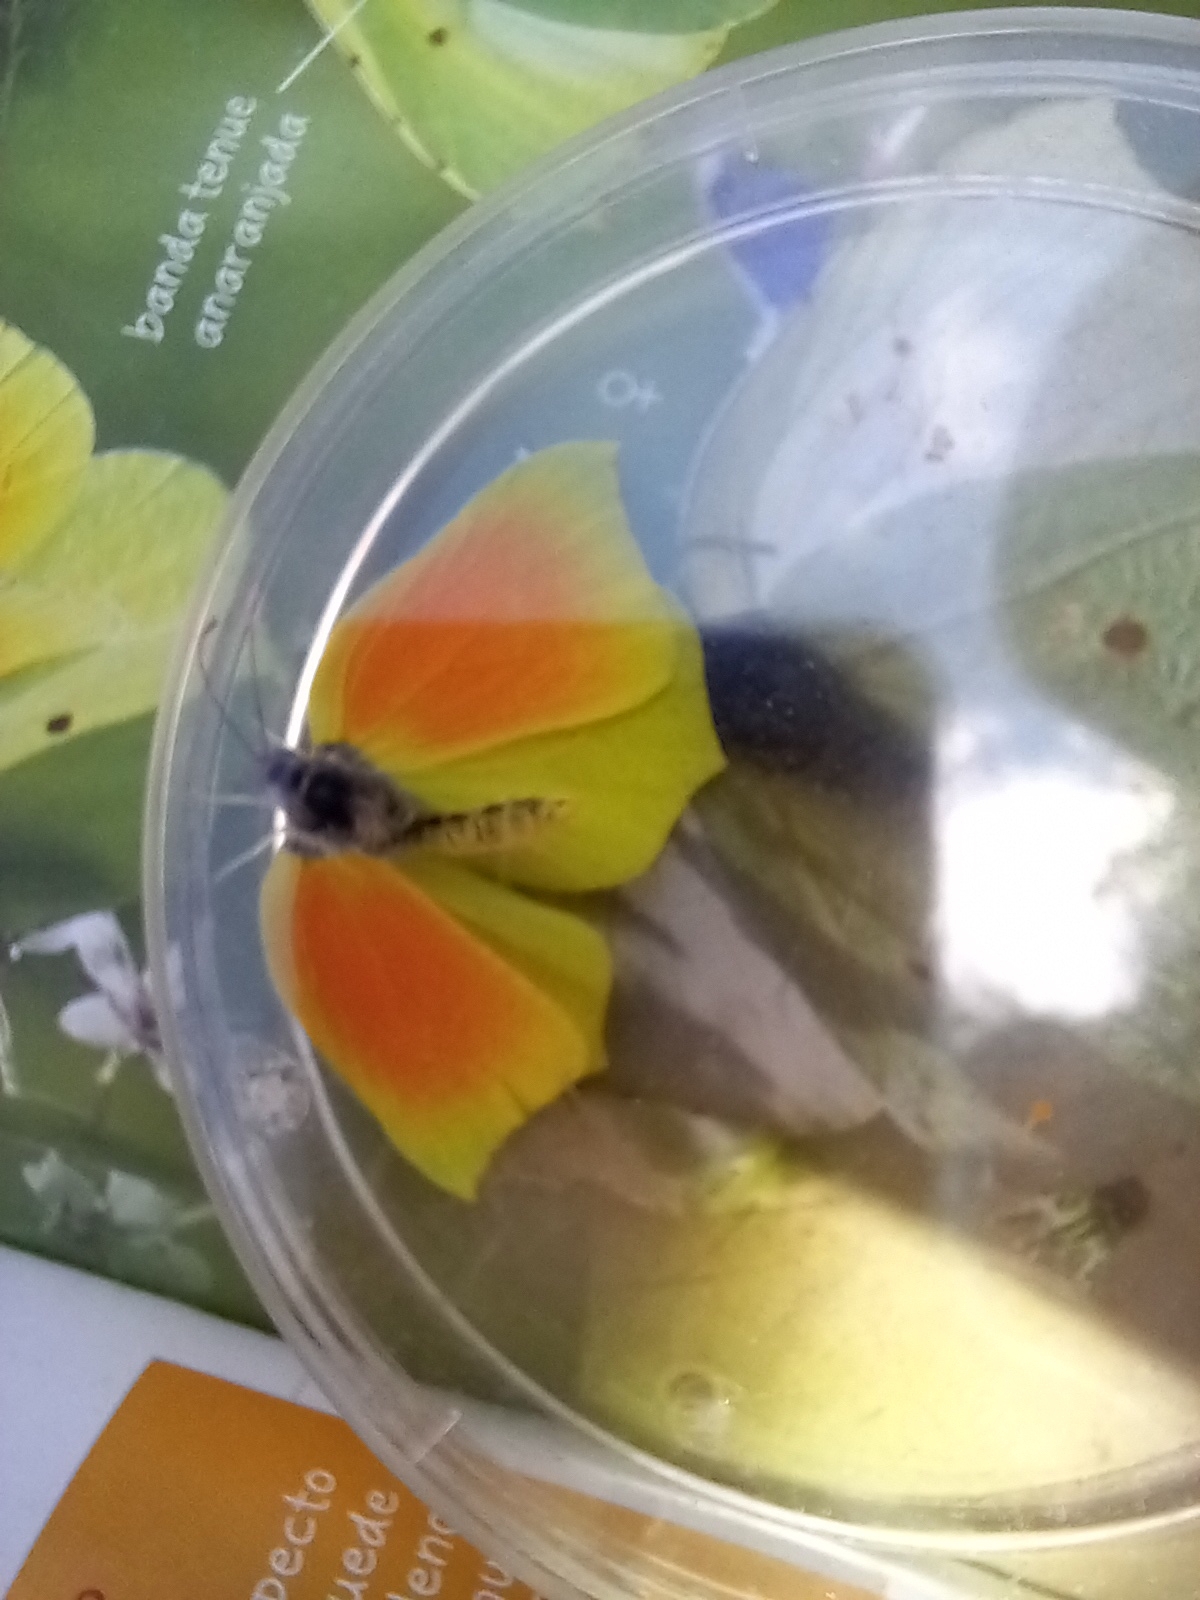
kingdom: Animalia
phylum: Arthropoda
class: Insecta
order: Lepidoptera
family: Pieridae
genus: Gonepteryx
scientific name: Gonepteryx cleopatra
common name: Cleopatra
